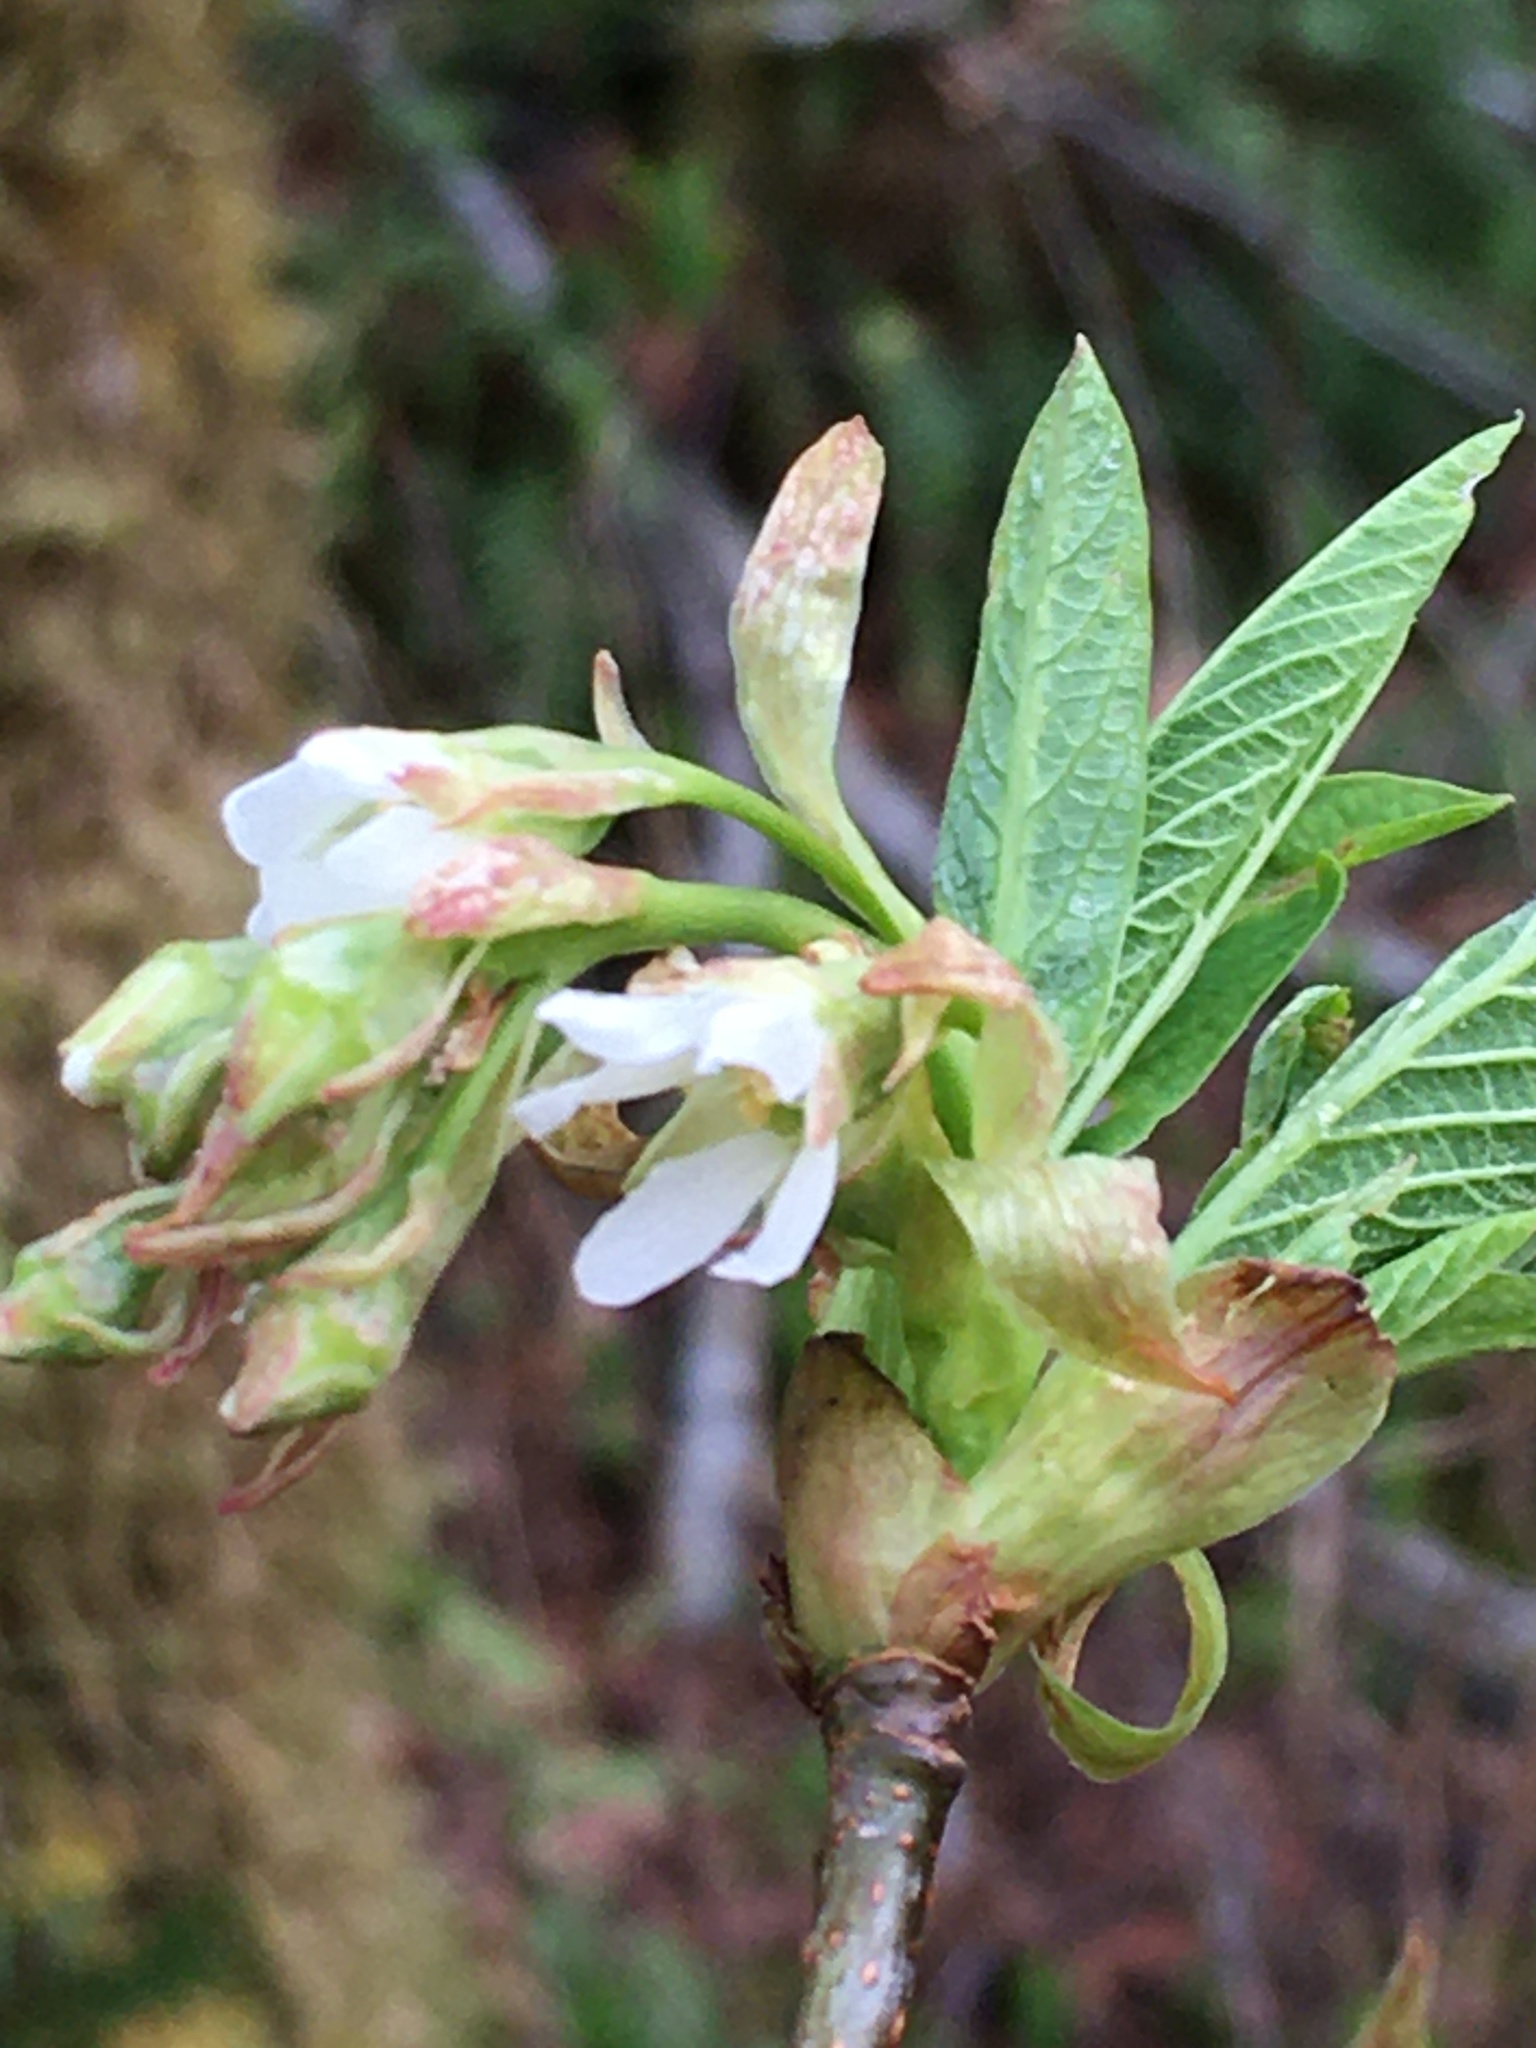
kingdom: Plantae
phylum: Tracheophyta
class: Magnoliopsida
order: Rosales
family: Rosaceae
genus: Oemleria
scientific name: Oemleria cerasiformis
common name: Osoberry
